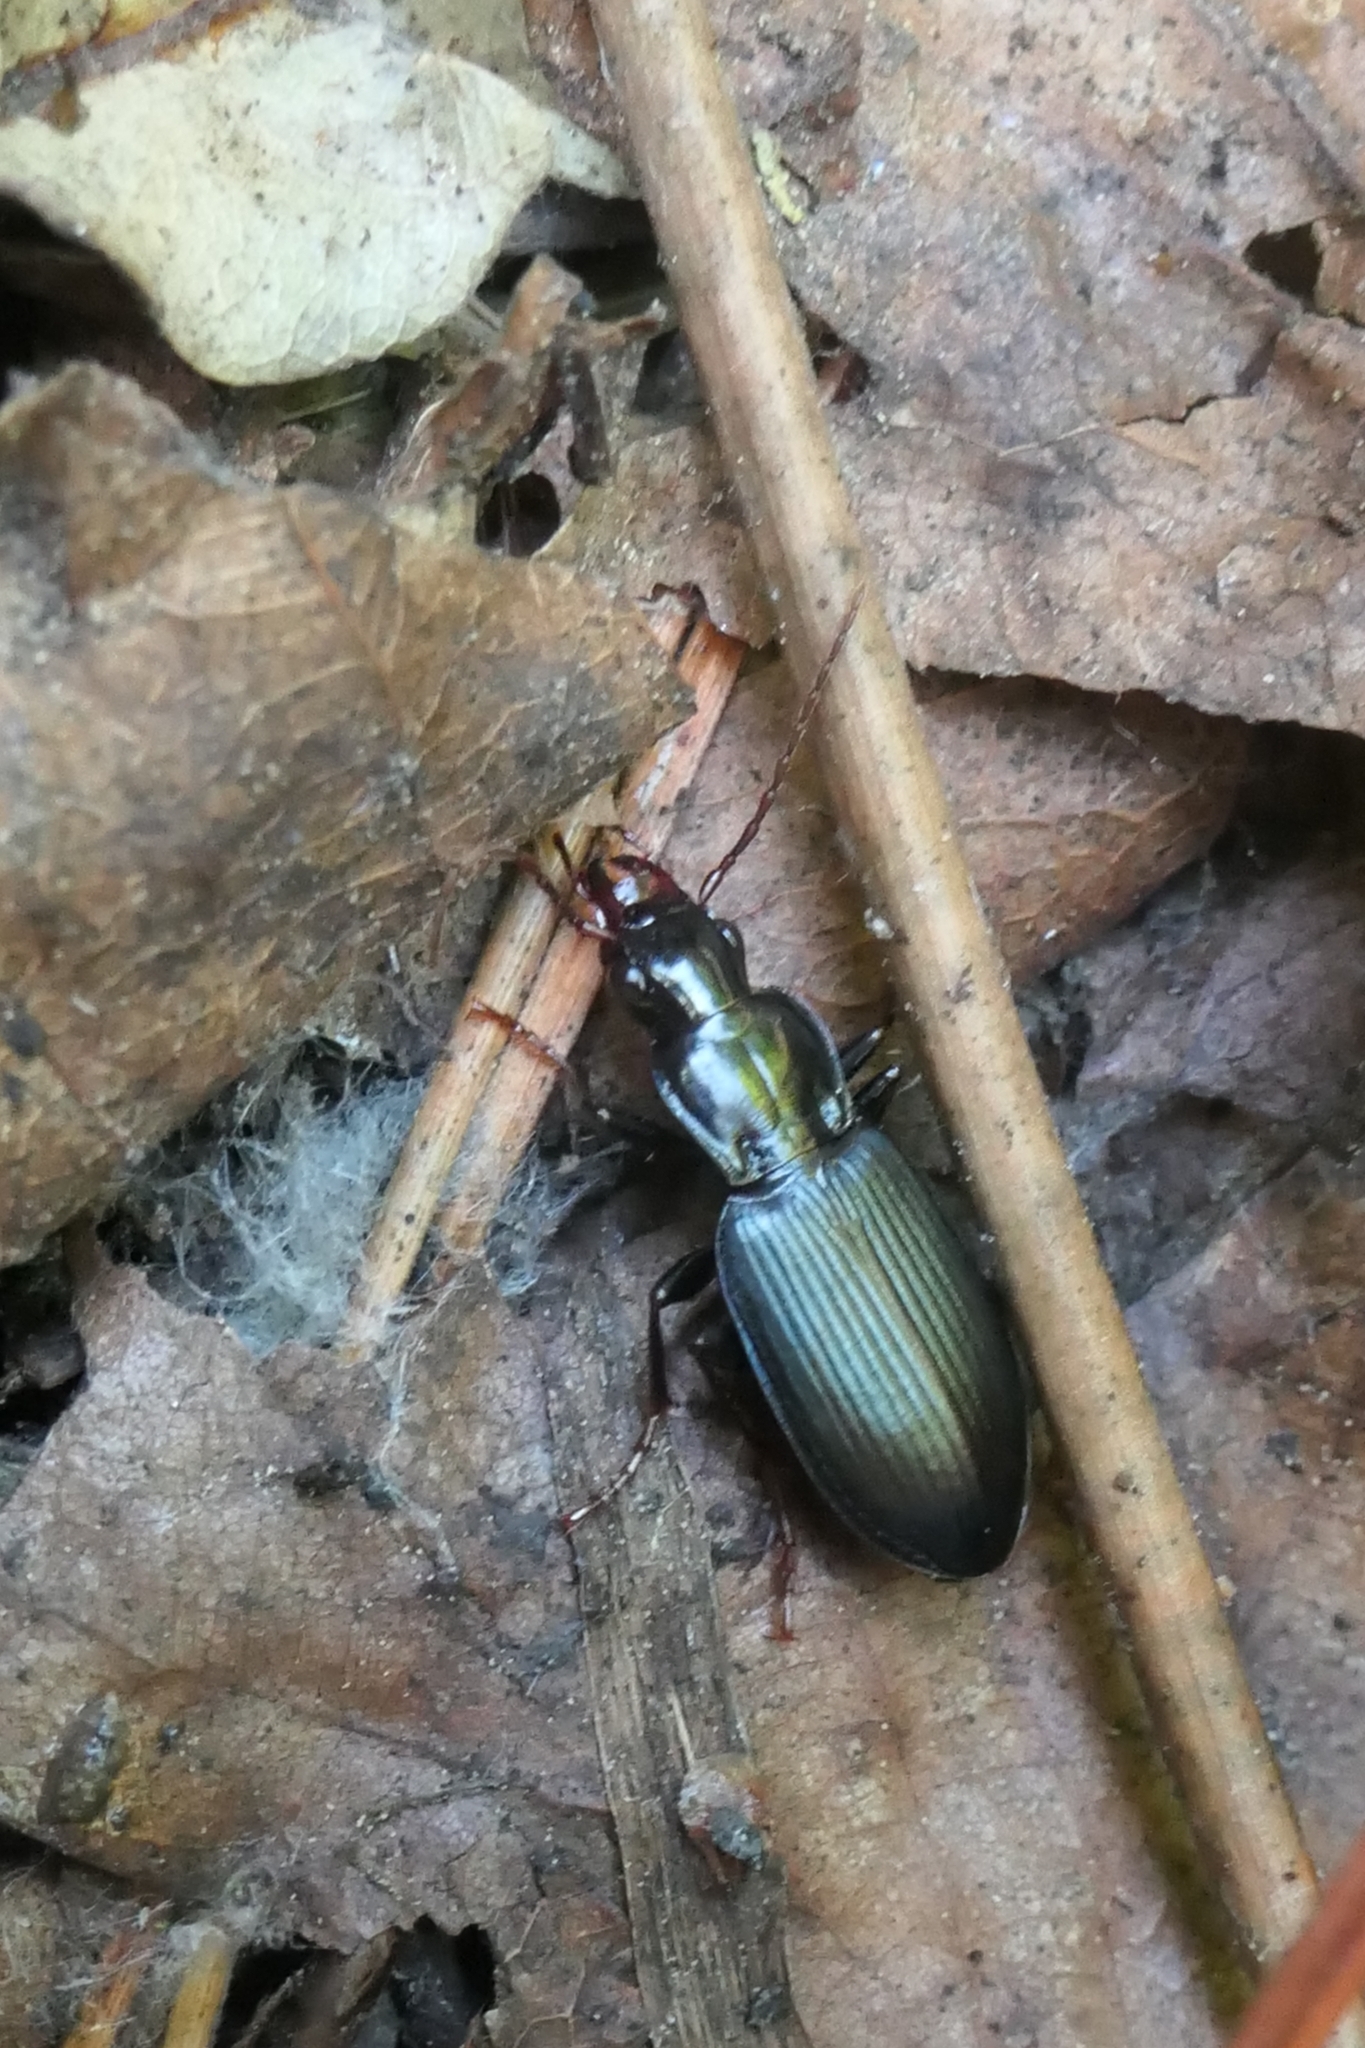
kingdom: Animalia
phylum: Arthropoda
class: Insecta
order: Coleoptera
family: Carabidae
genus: Laemostenus
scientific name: Laemostenus complanatus
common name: Cosmopolitan ground beetle
